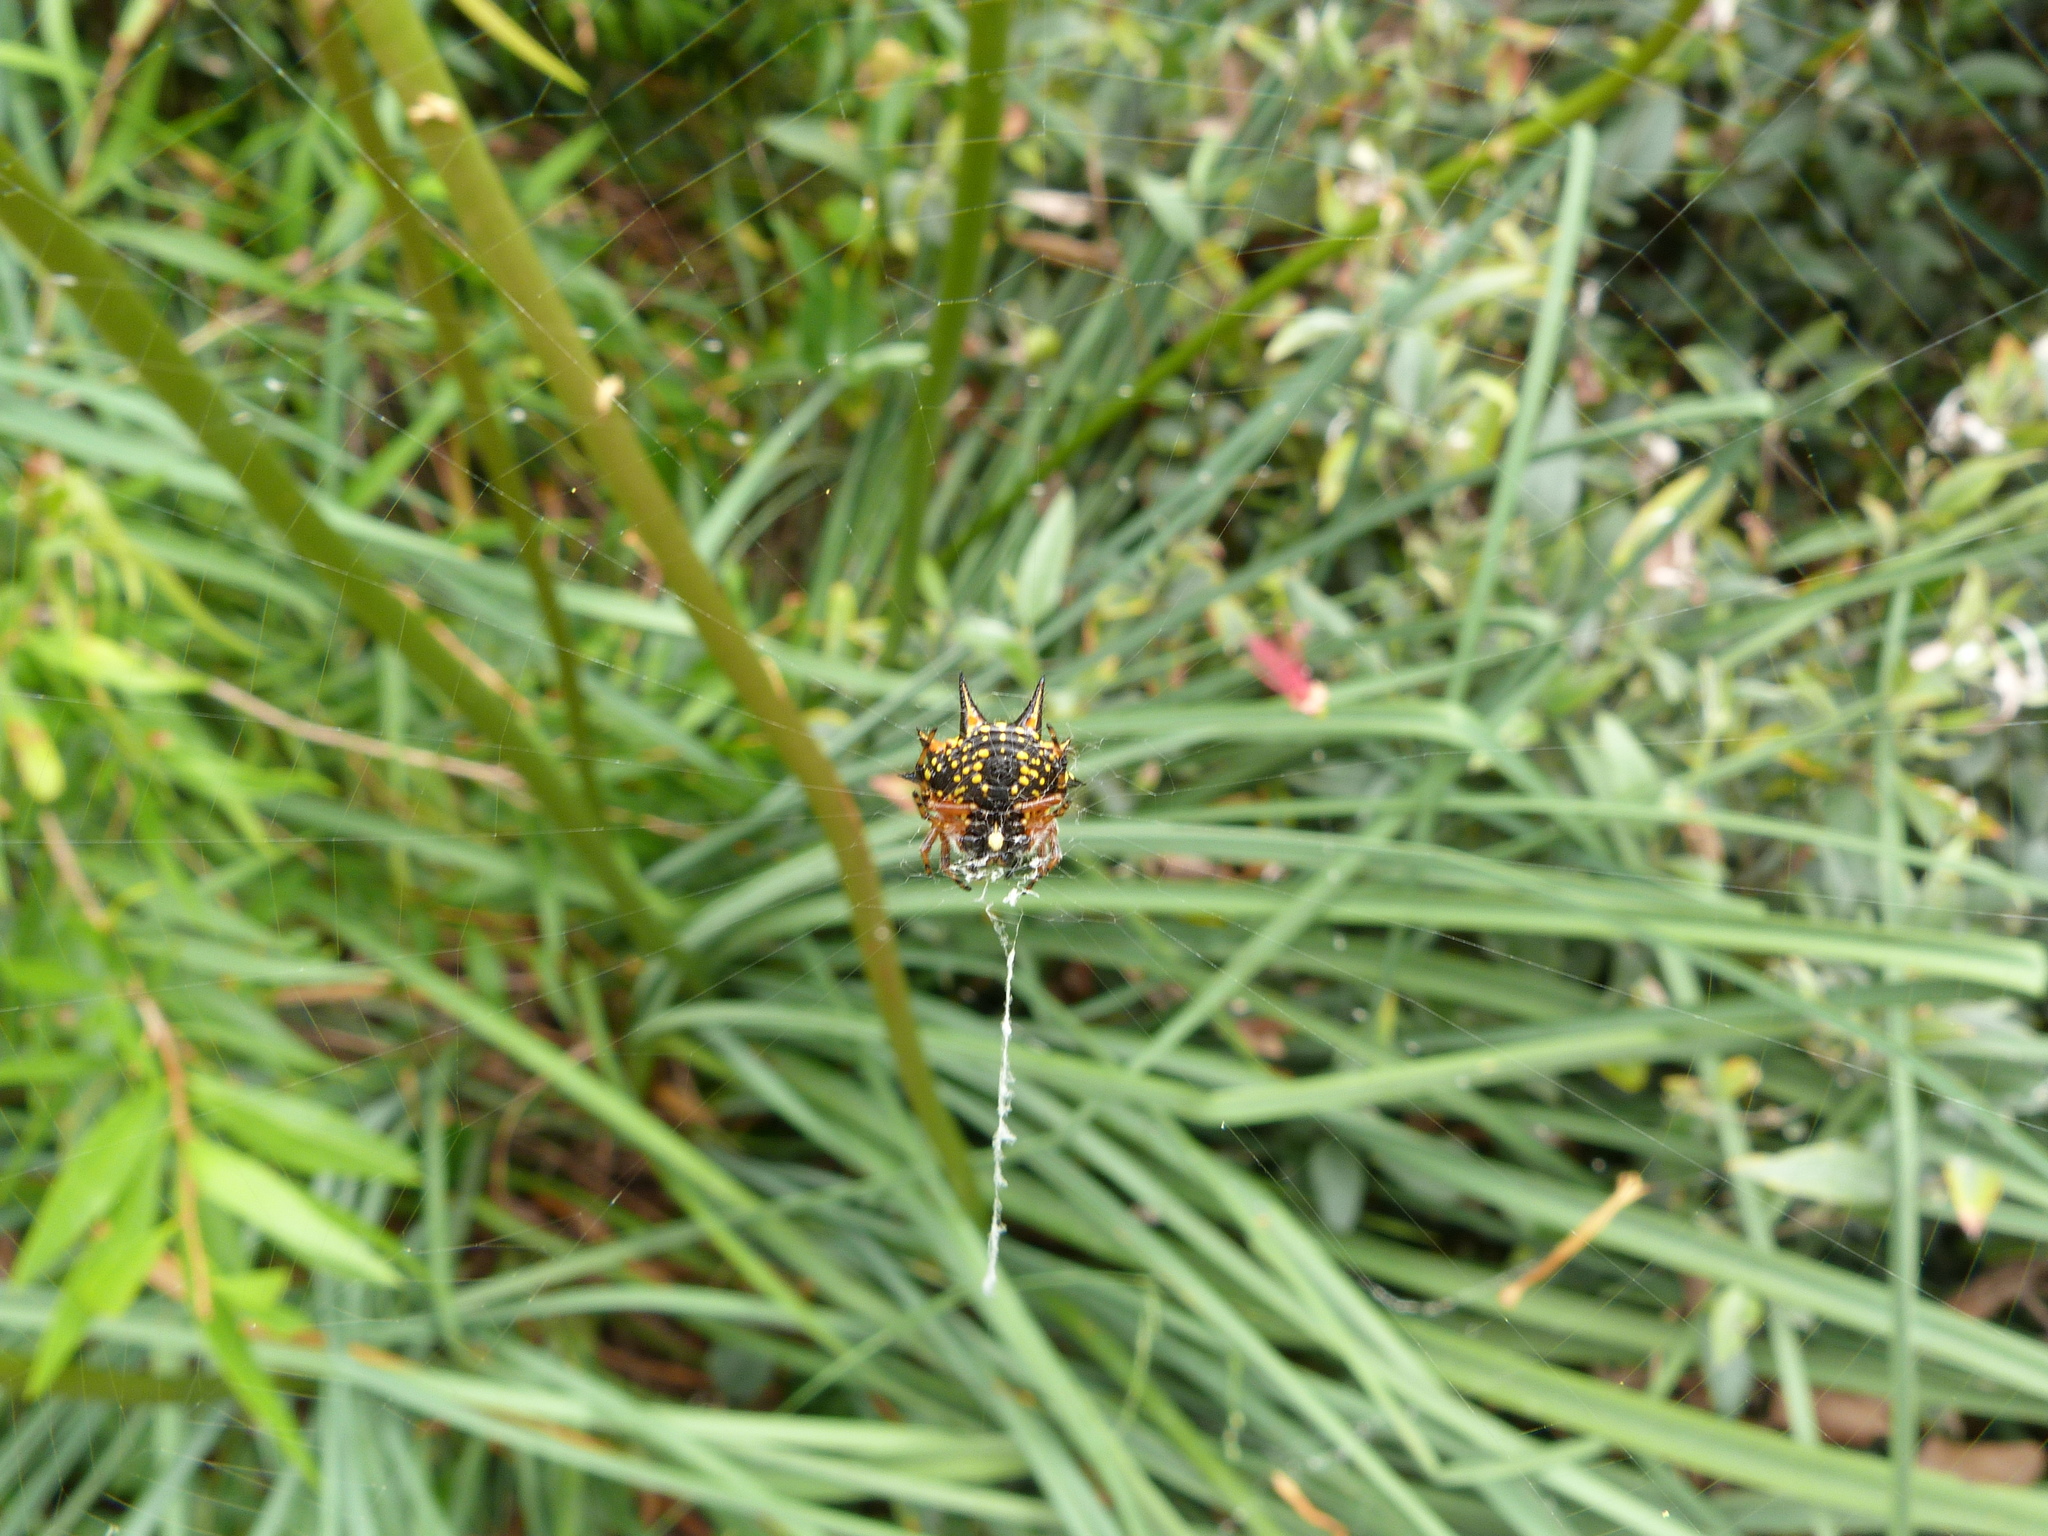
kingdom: Animalia
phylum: Arthropoda
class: Arachnida
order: Araneae
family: Araneidae
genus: Austracantha
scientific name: Austracantha minax
